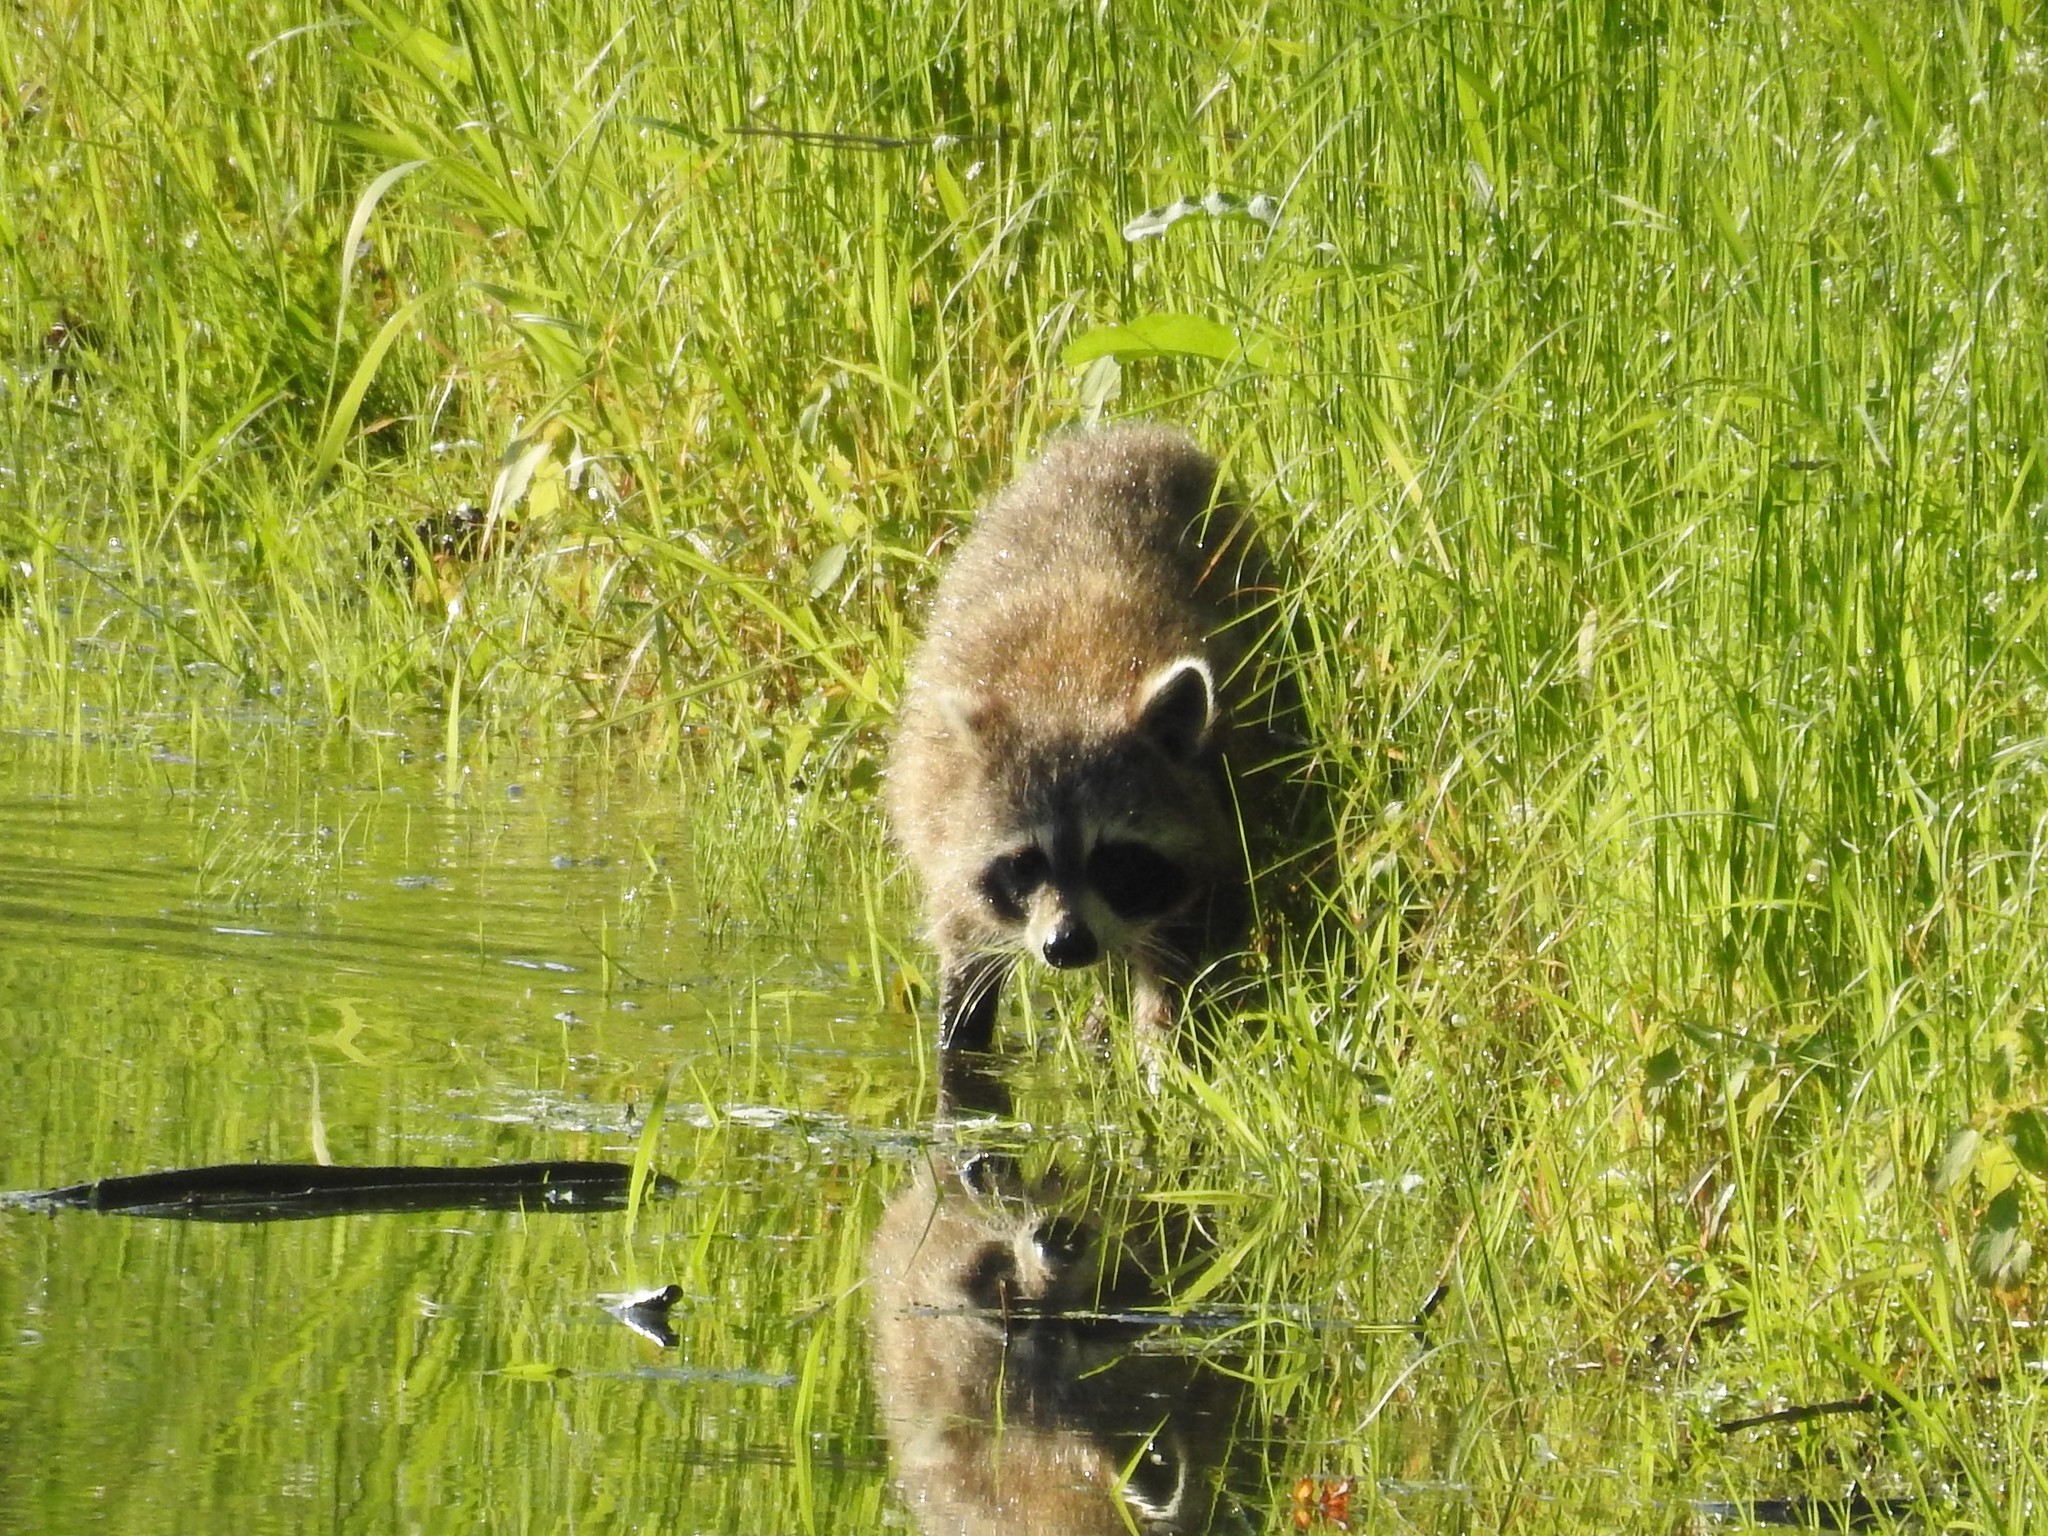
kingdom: Animalia
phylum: Chordata
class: Mammalia
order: Carnivora
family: Procyonidae
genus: Procyon
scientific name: Procyon lotor
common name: Raccoon
